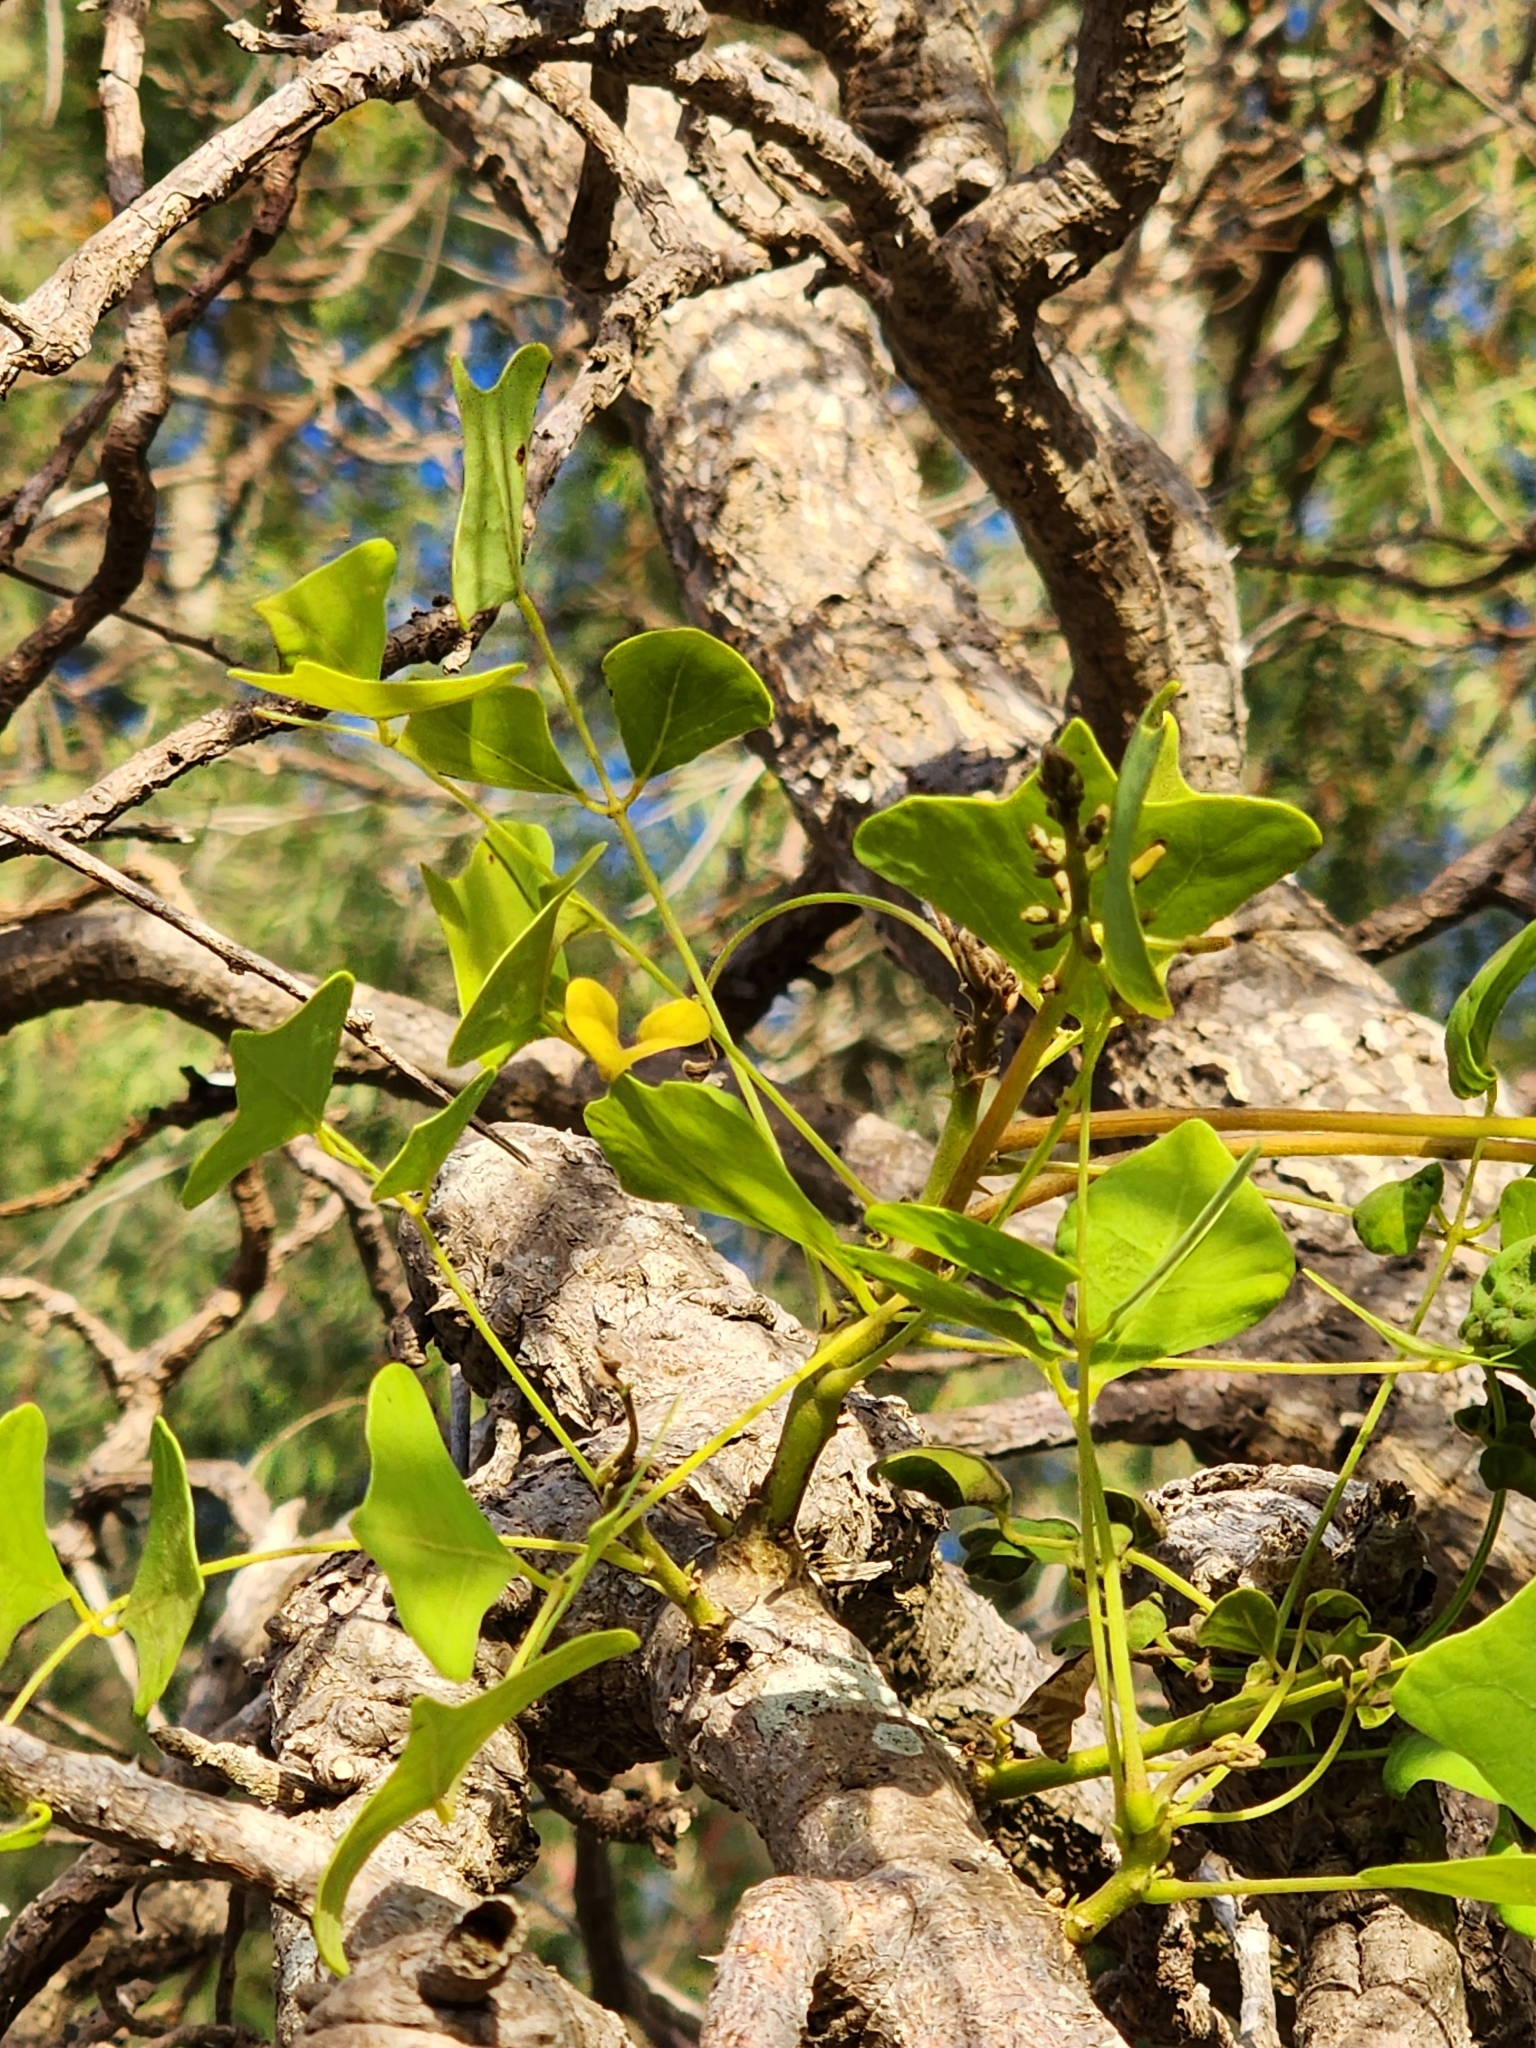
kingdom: Plantae
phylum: Tracheophyta
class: Magnoliopsida
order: Fabales
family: Fabaceae
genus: Erythrina
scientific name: Erythrina vespertilio
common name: Bat-wing coral tree
